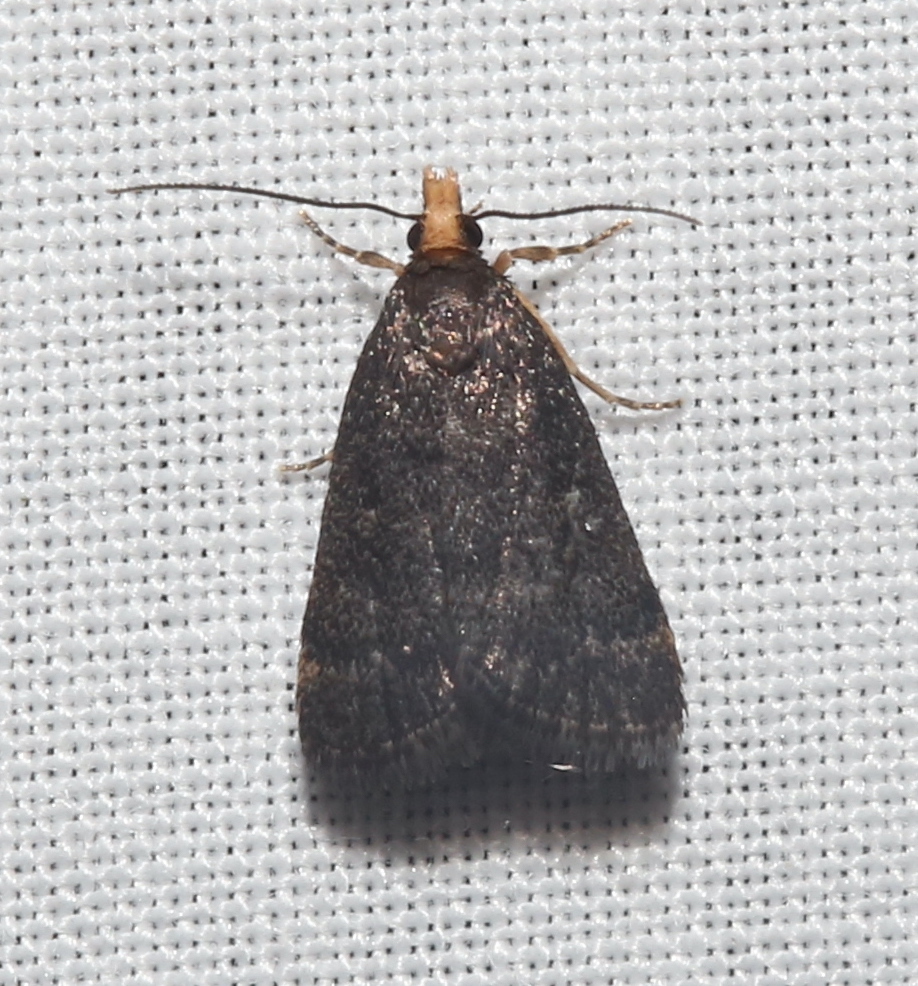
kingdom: Animalia
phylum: Arthropoda
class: Insecta
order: Lepidoptera
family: Crambidae
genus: Pyrausta
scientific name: Pyrausta merrickalis
